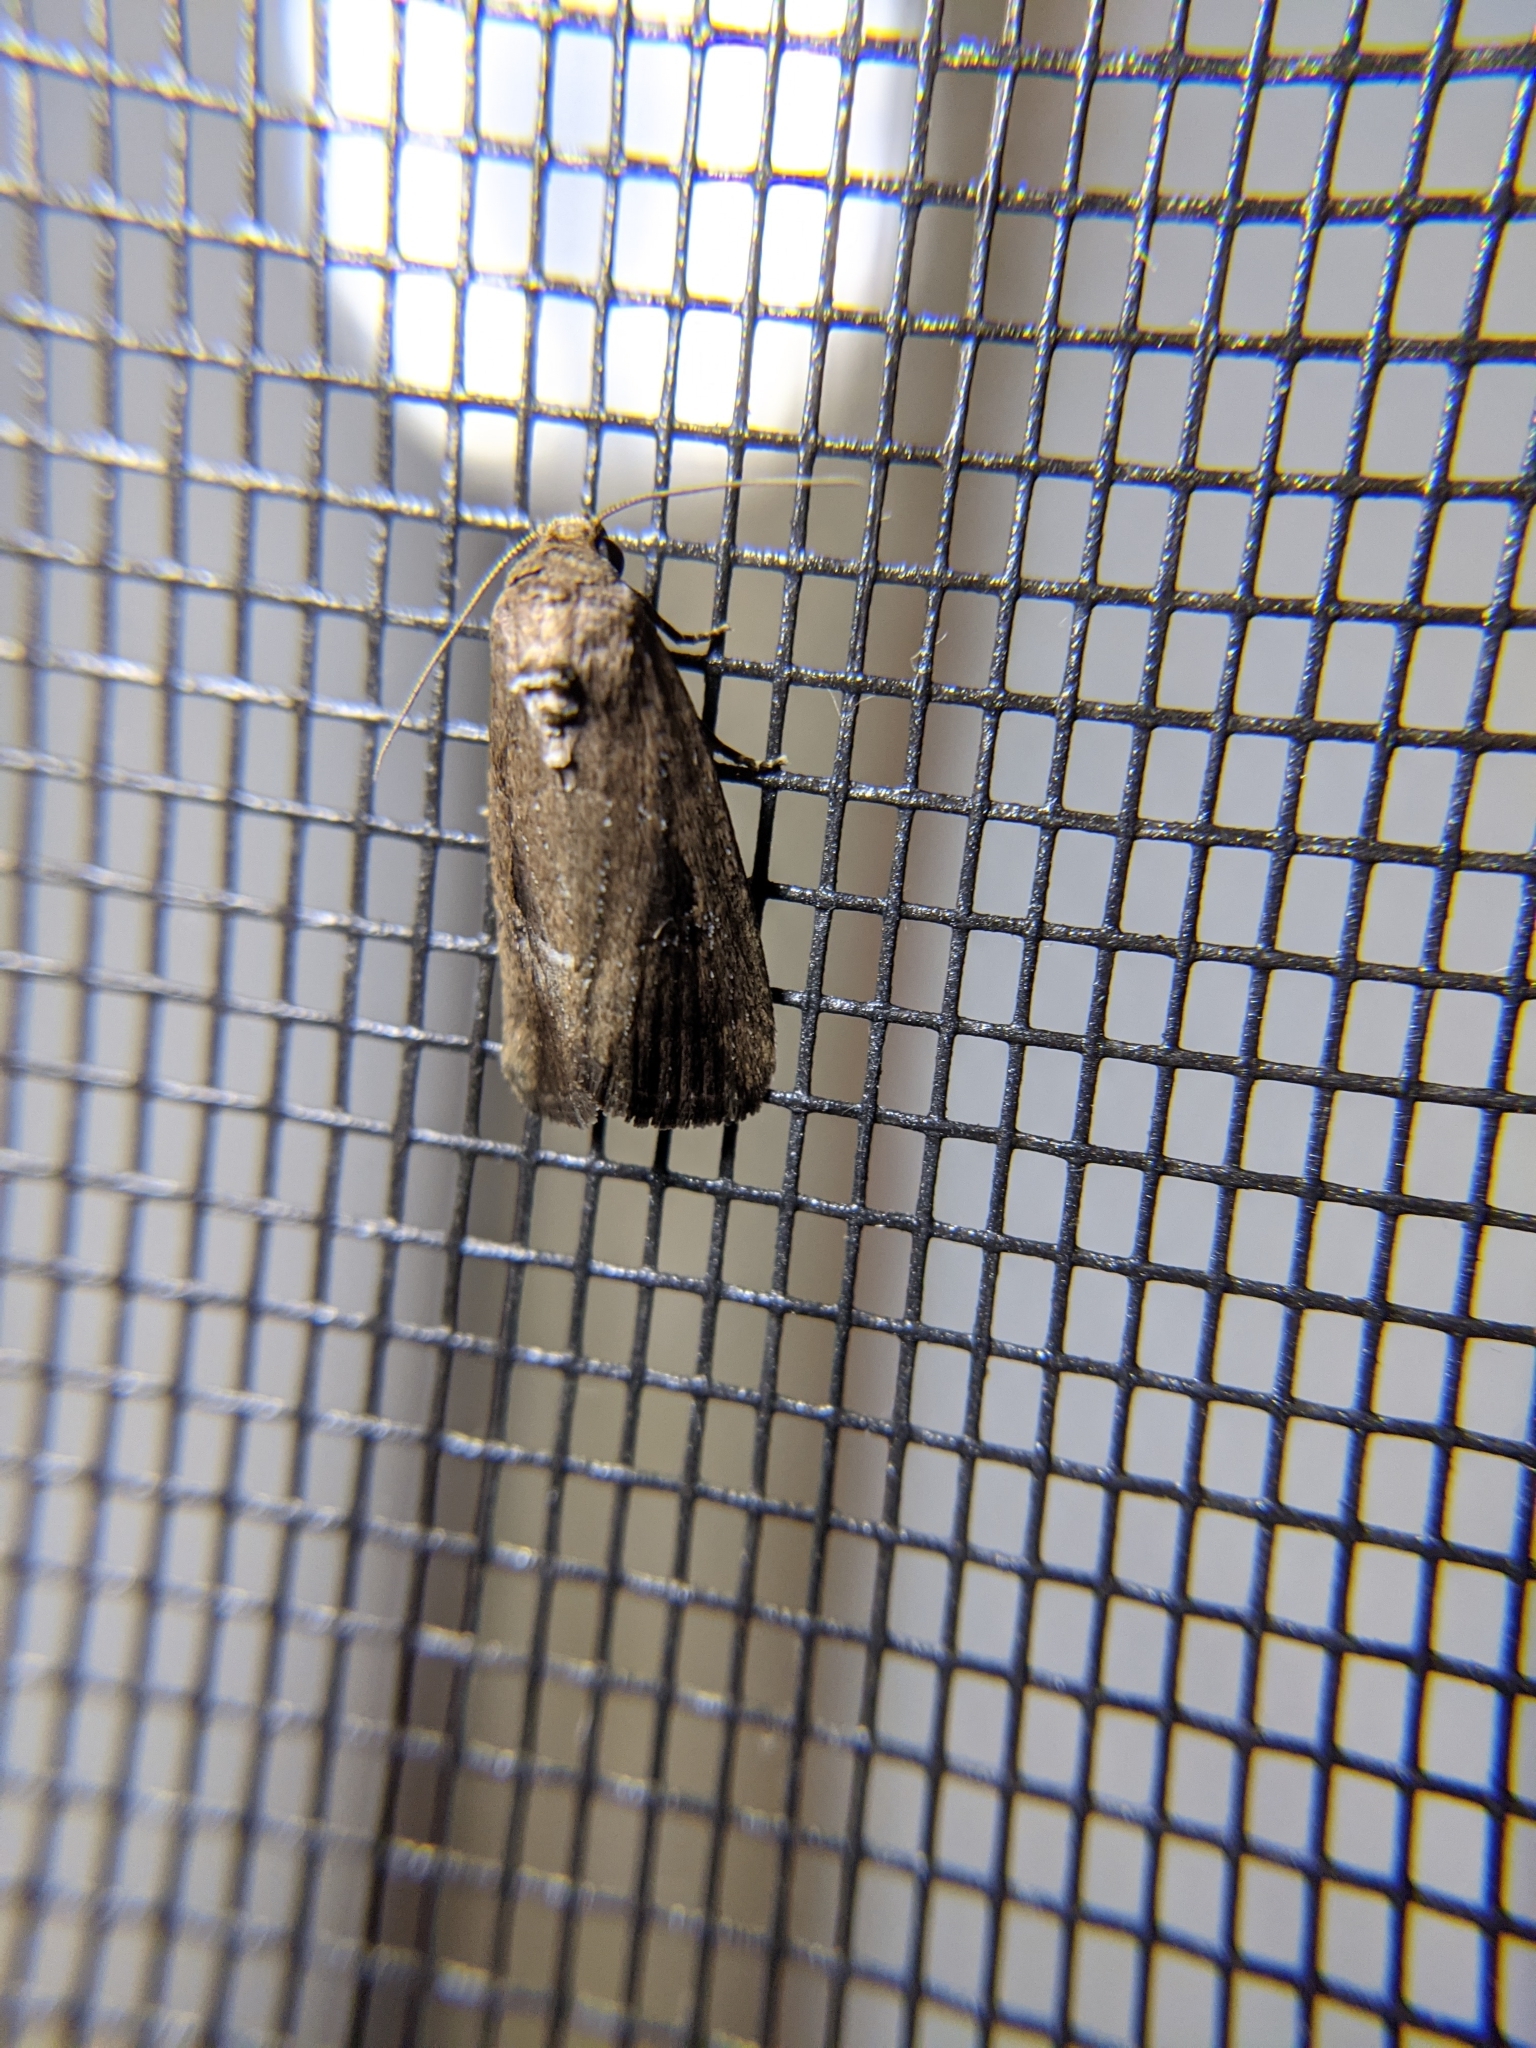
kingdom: Animalia
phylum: Arthropoda
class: Insecta
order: Lepidoptera
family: Noctuidae
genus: Elaphria
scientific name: Elaphria nucicolora
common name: Sugarcane midget moth
